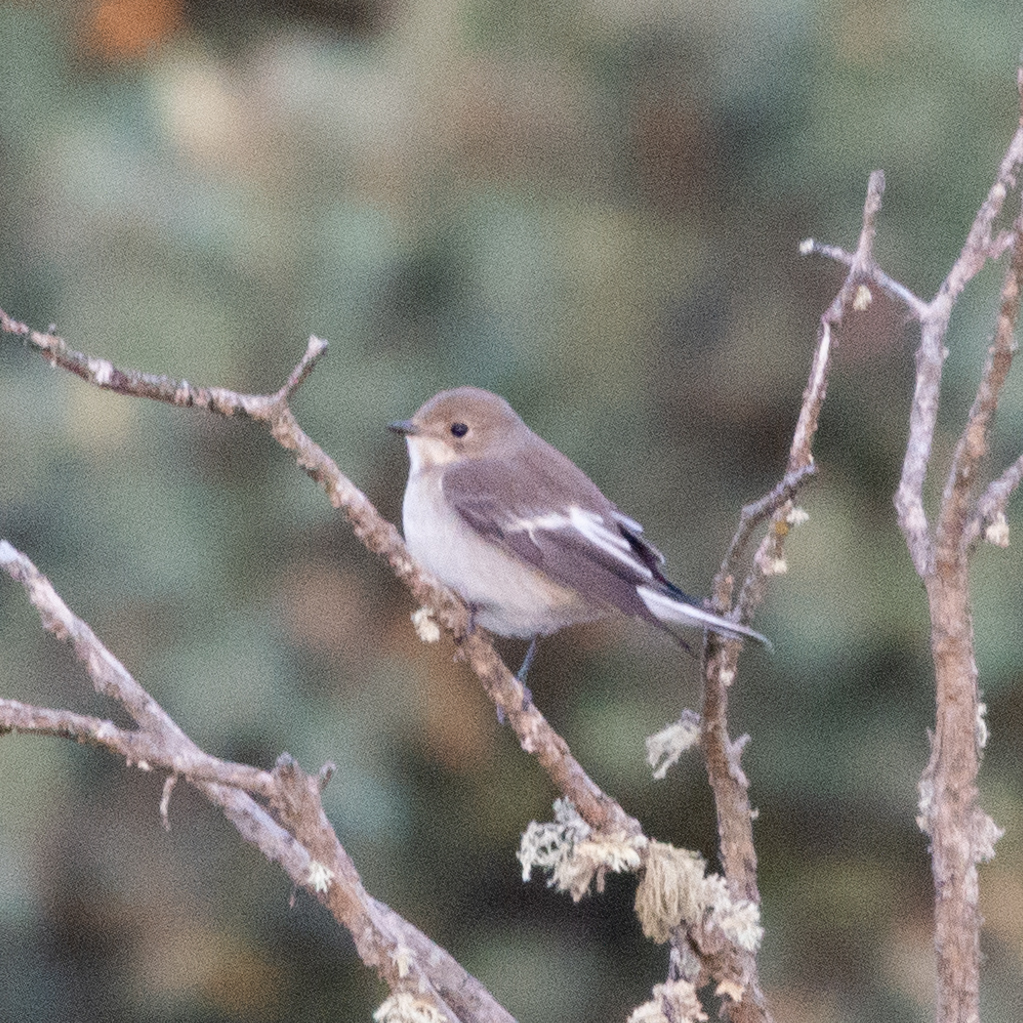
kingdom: Animalia
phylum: Chordata
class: Aves
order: Passeriformes
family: Muscicapidae
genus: Ficedula
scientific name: Ficedula hypoleuca
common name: European pied flycatcher
